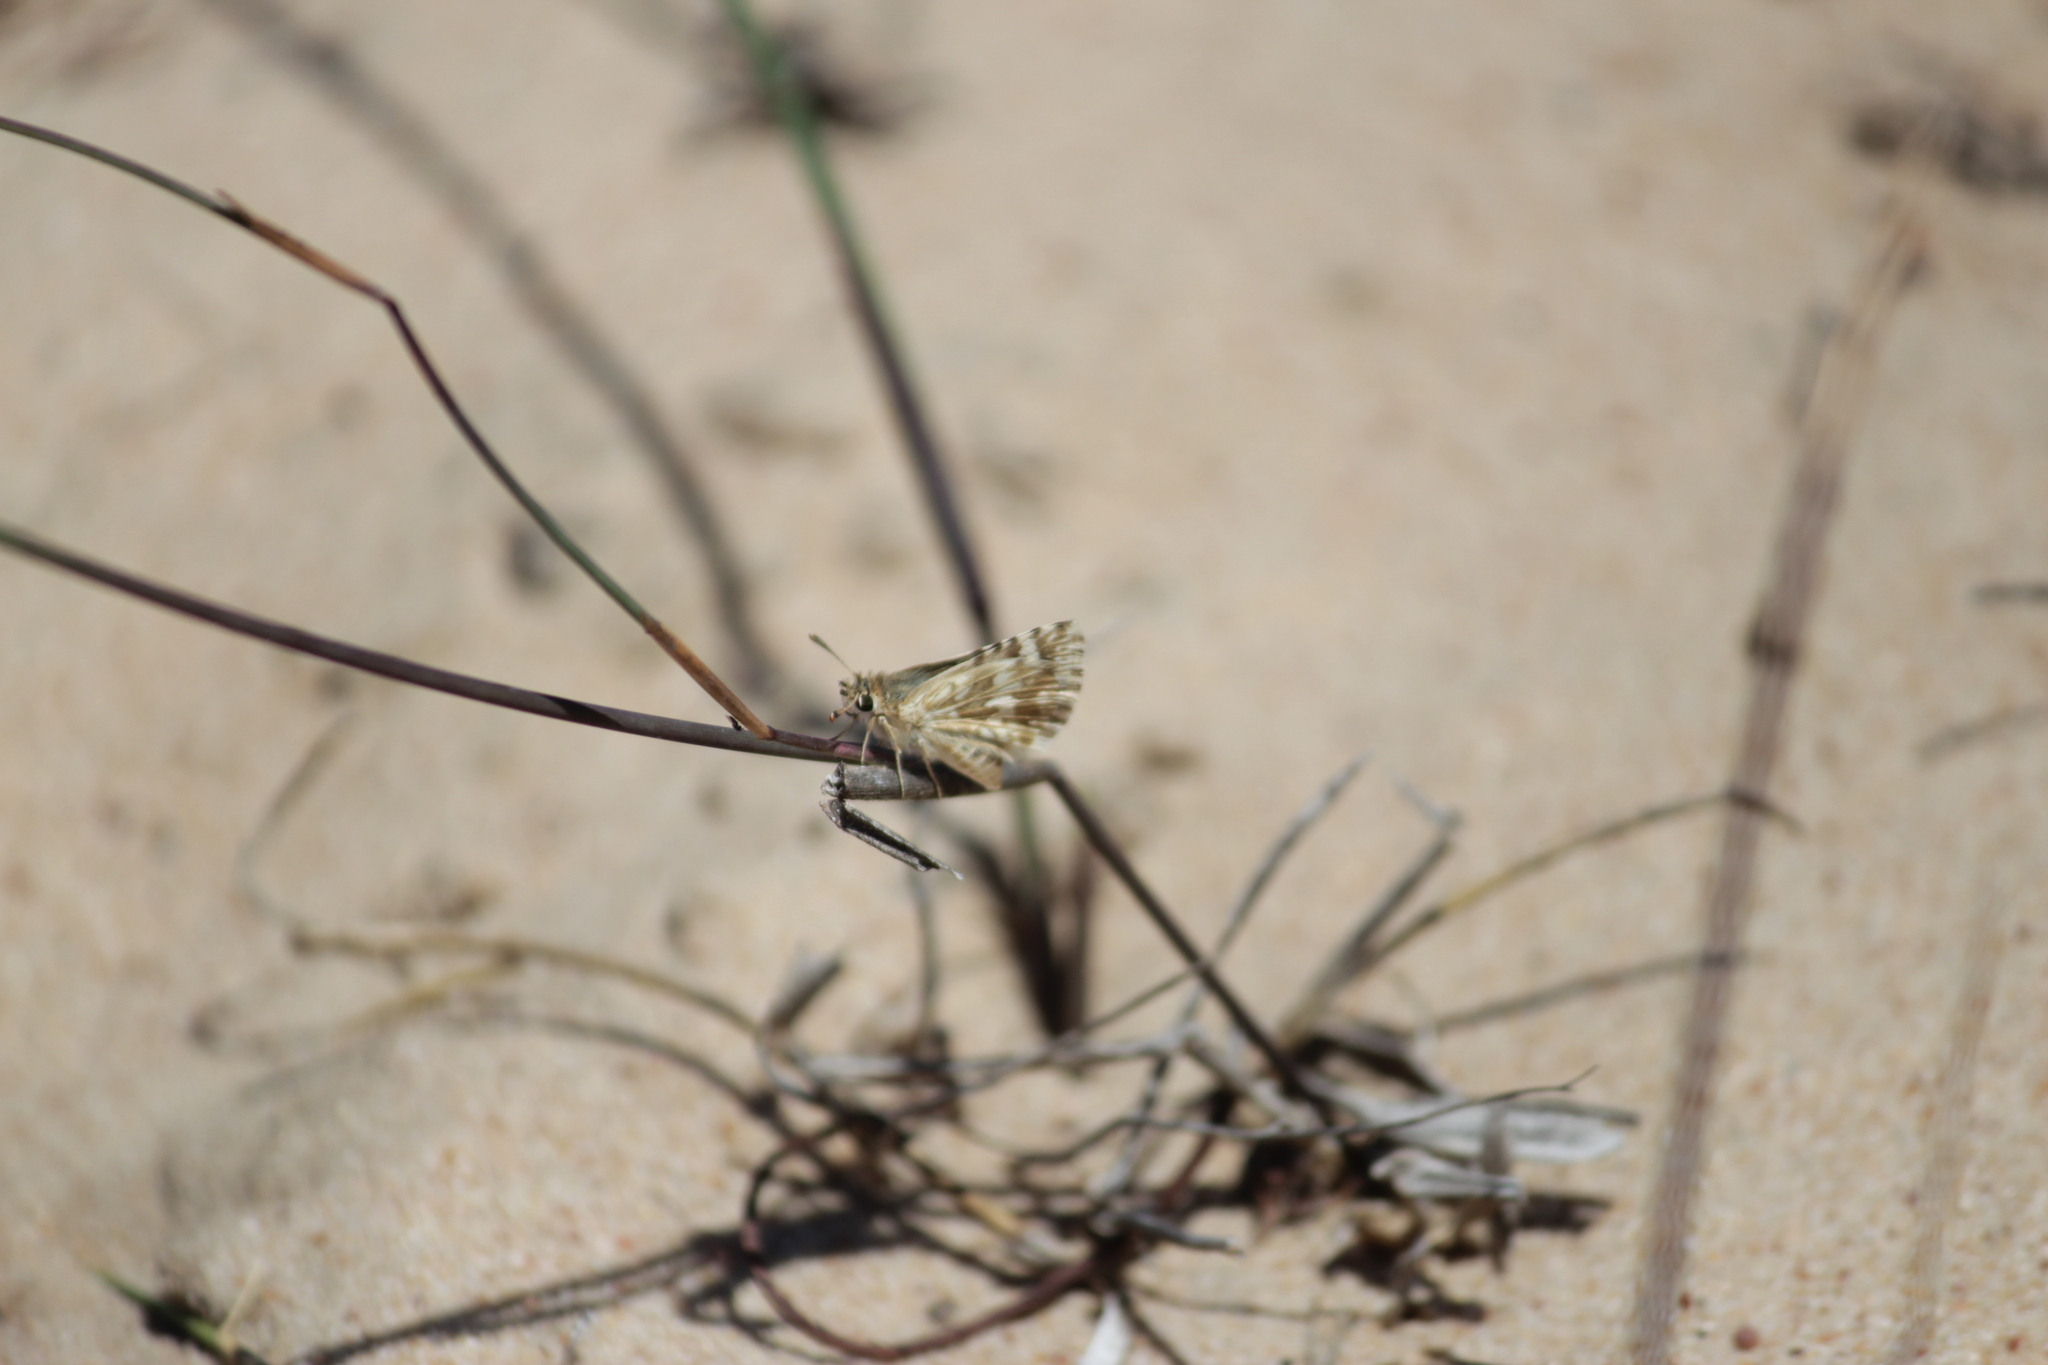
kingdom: Animalia
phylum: Arthropoda
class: Insecta
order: Lepidoptera
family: Hesperiidae
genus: Spialia
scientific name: Spialia mafa
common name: Mafa sandman
